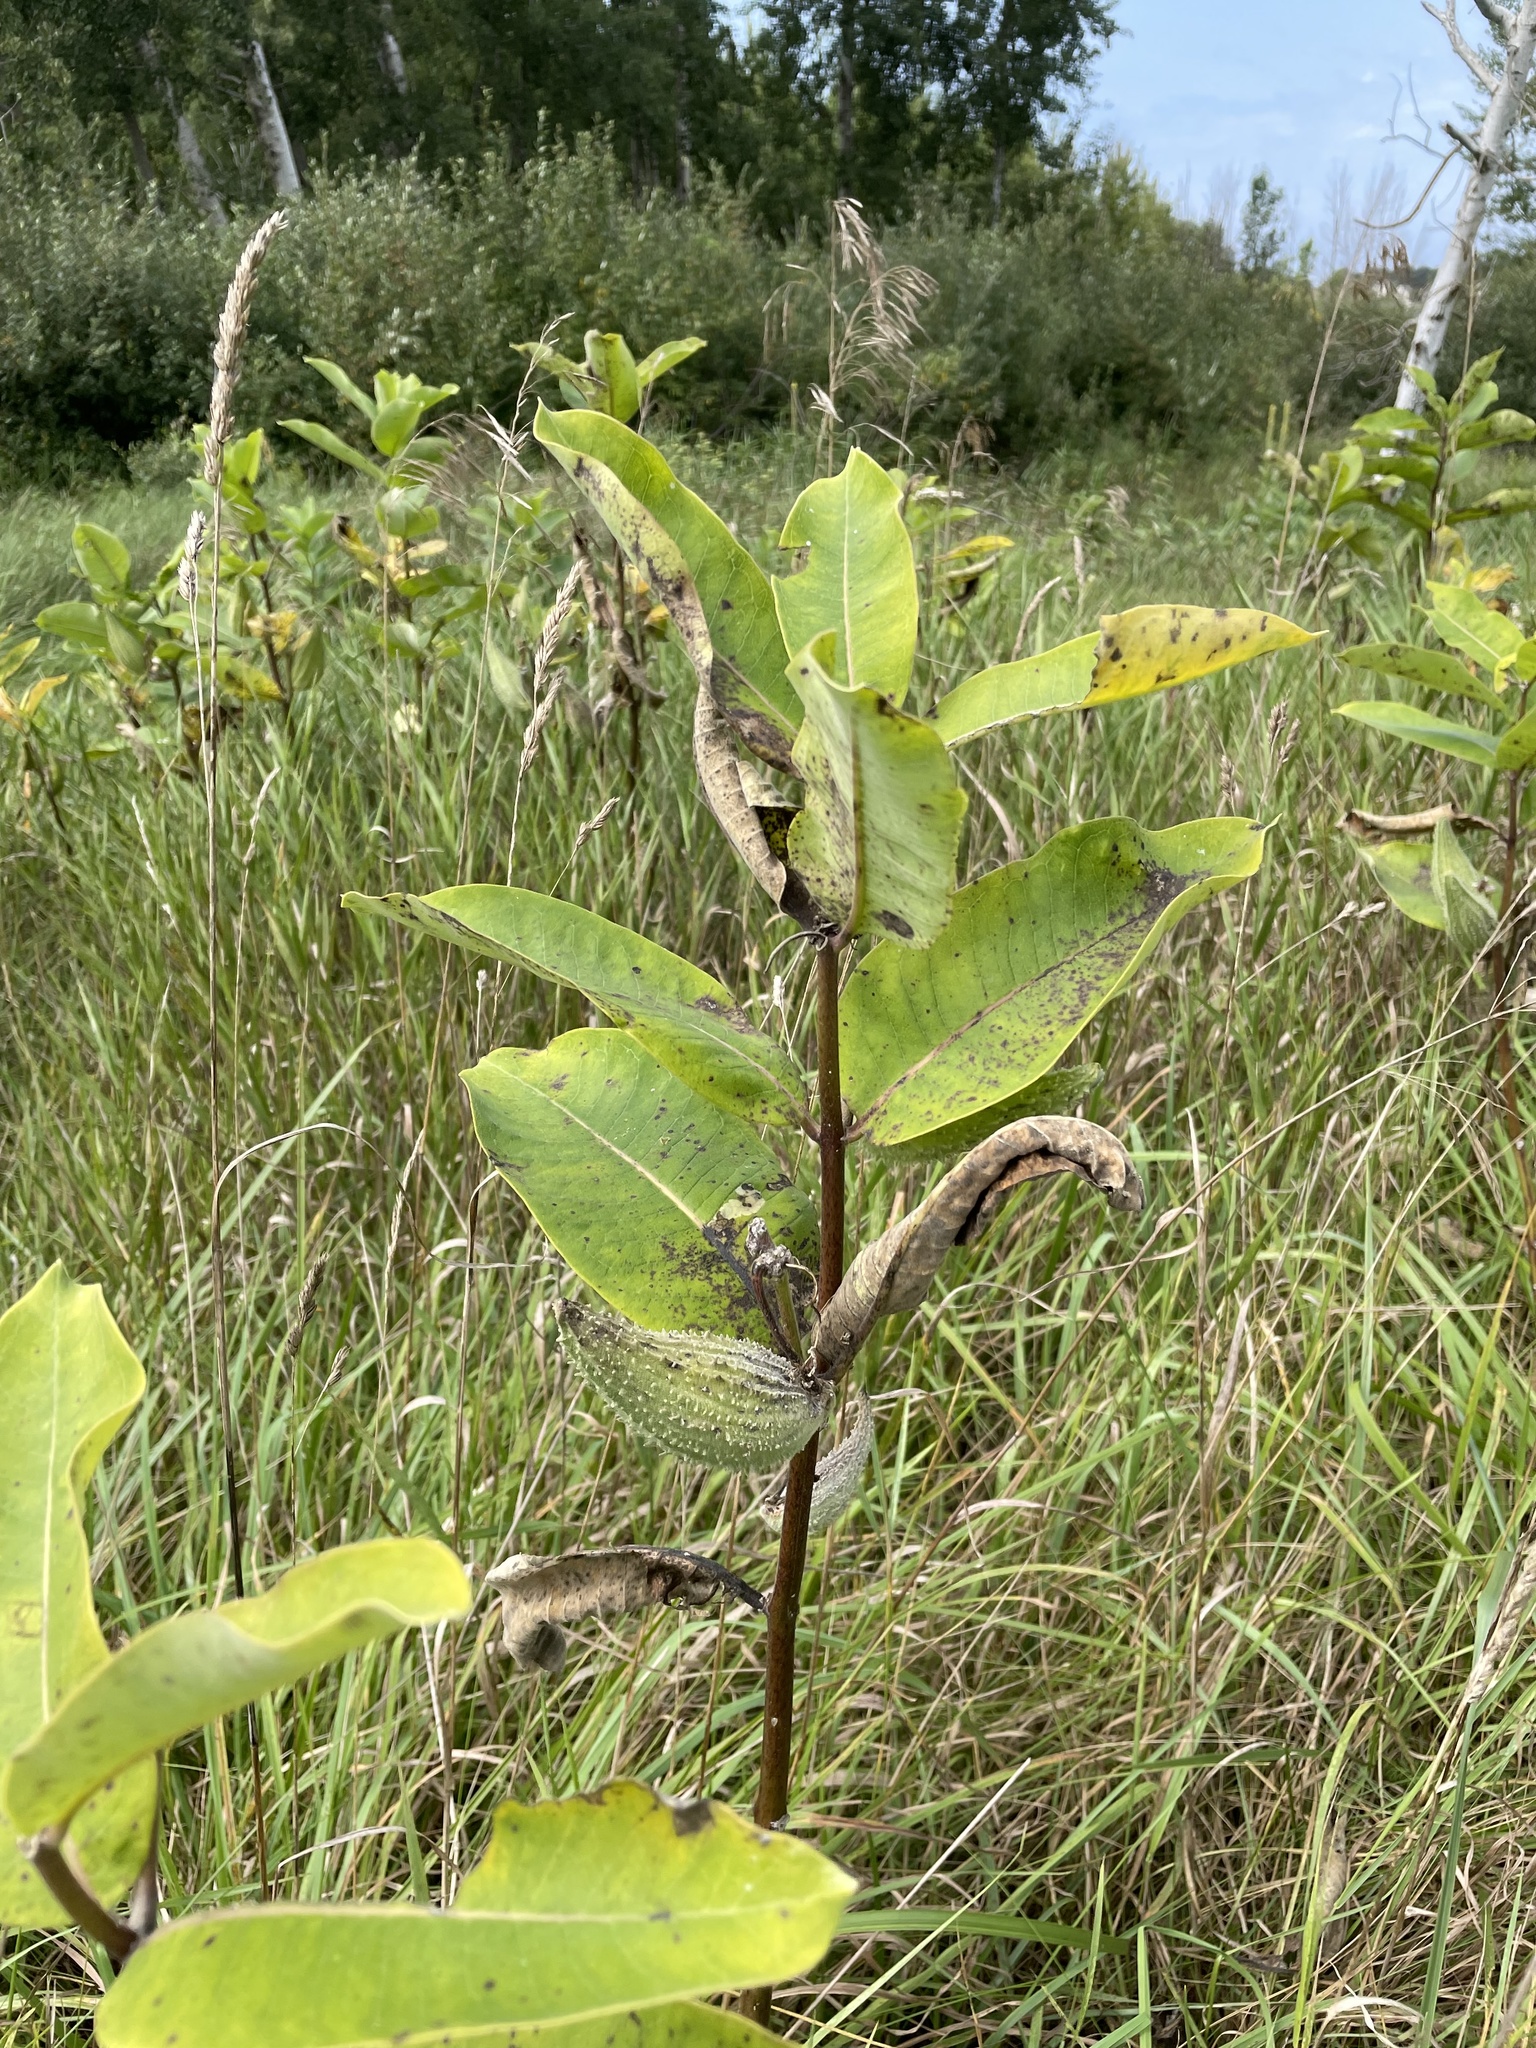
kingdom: Plantae
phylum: Tracheophyta
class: Magnoliopsida
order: Gentianales
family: Apocynaceae
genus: Asclepias
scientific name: Asclepias syriaca
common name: Common milkweed
